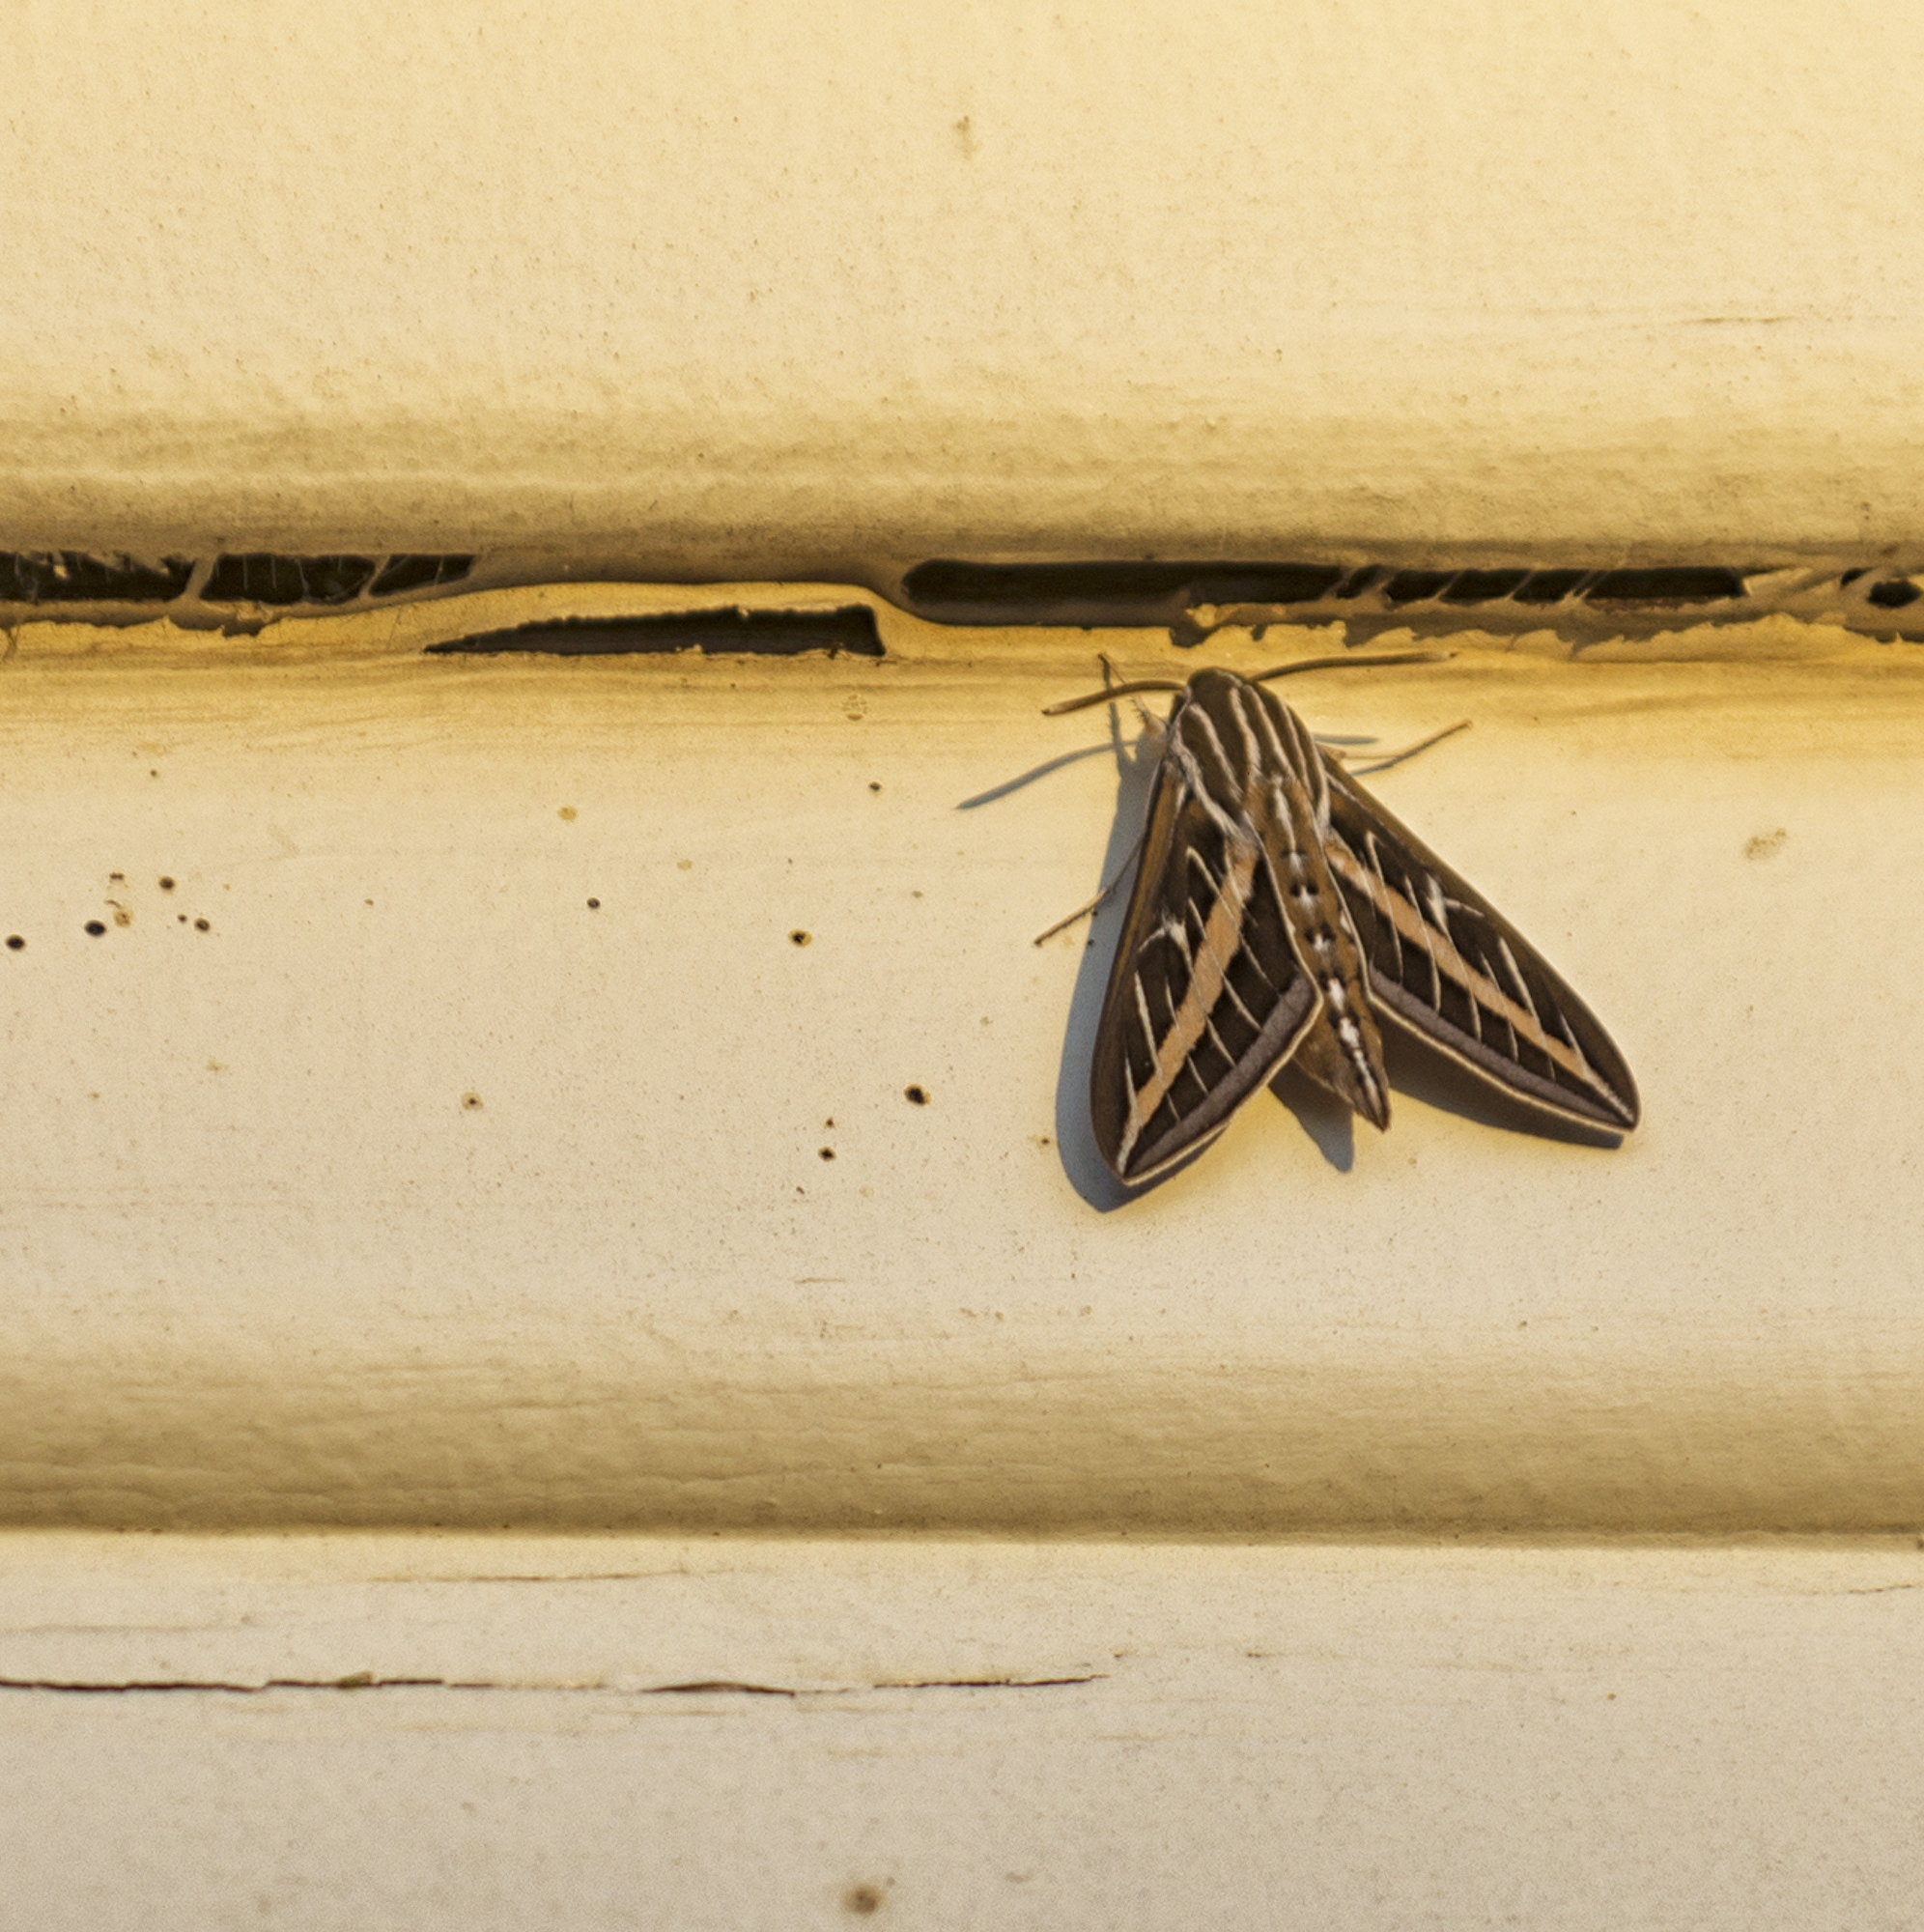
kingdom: Animalia
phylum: Arthropoda
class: Insecta
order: Lepidoptera
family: Sphingidae
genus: Hyles
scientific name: Hyles lineata
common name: White-lined sphinx
